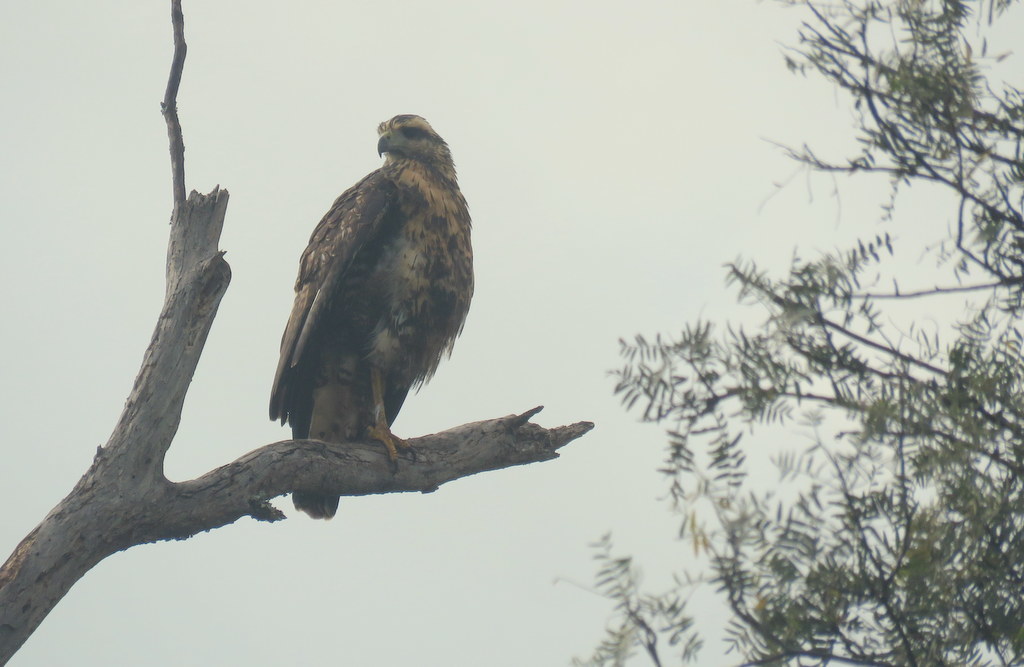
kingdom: Animalia
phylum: Chordata
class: Aves
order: Accipitriformes
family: Accipitridae
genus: Buteogallus
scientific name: Buteogallus urubitinga
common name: Great black hawk
